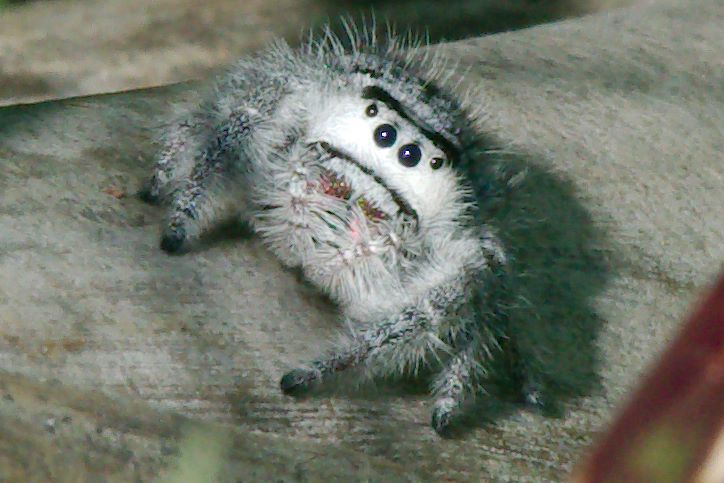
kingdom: Animalia
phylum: Arthropoda
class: Arachnida
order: Araneae
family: Salticidae
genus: Phidippus
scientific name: Phidippus regius
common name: Regal jumper
